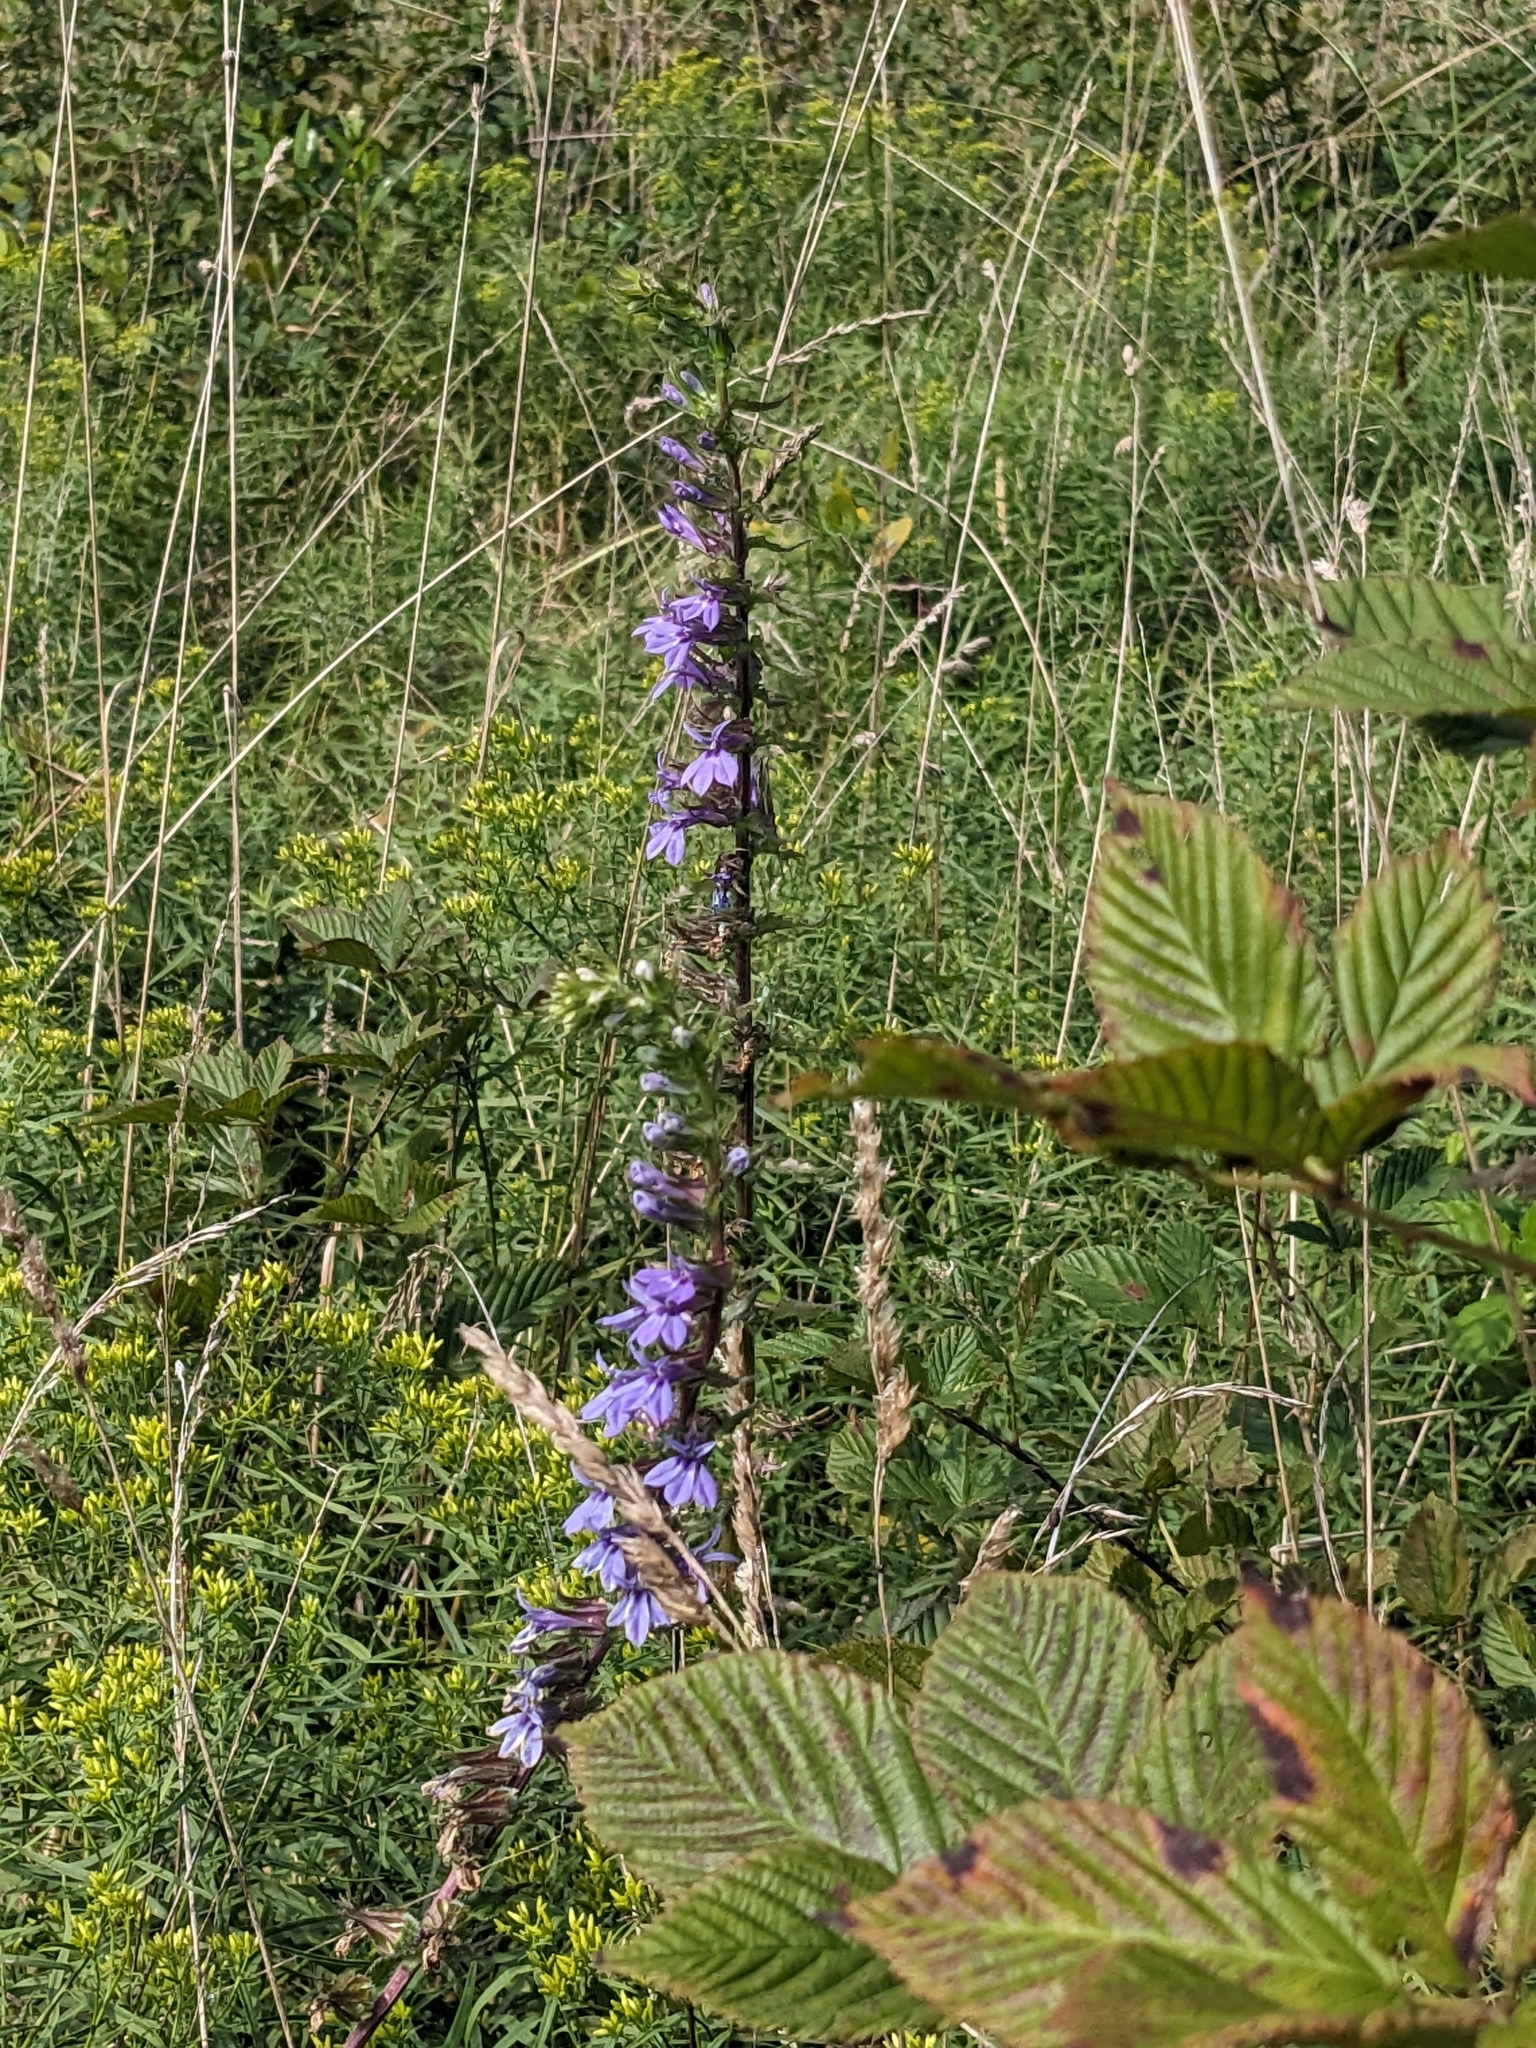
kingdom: Plantae
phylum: Tracheophyta
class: Magnoliopsida
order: Asterales
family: Campanulaceae
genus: Lobelia
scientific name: Lobelia puberula
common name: Purple dewdrop
